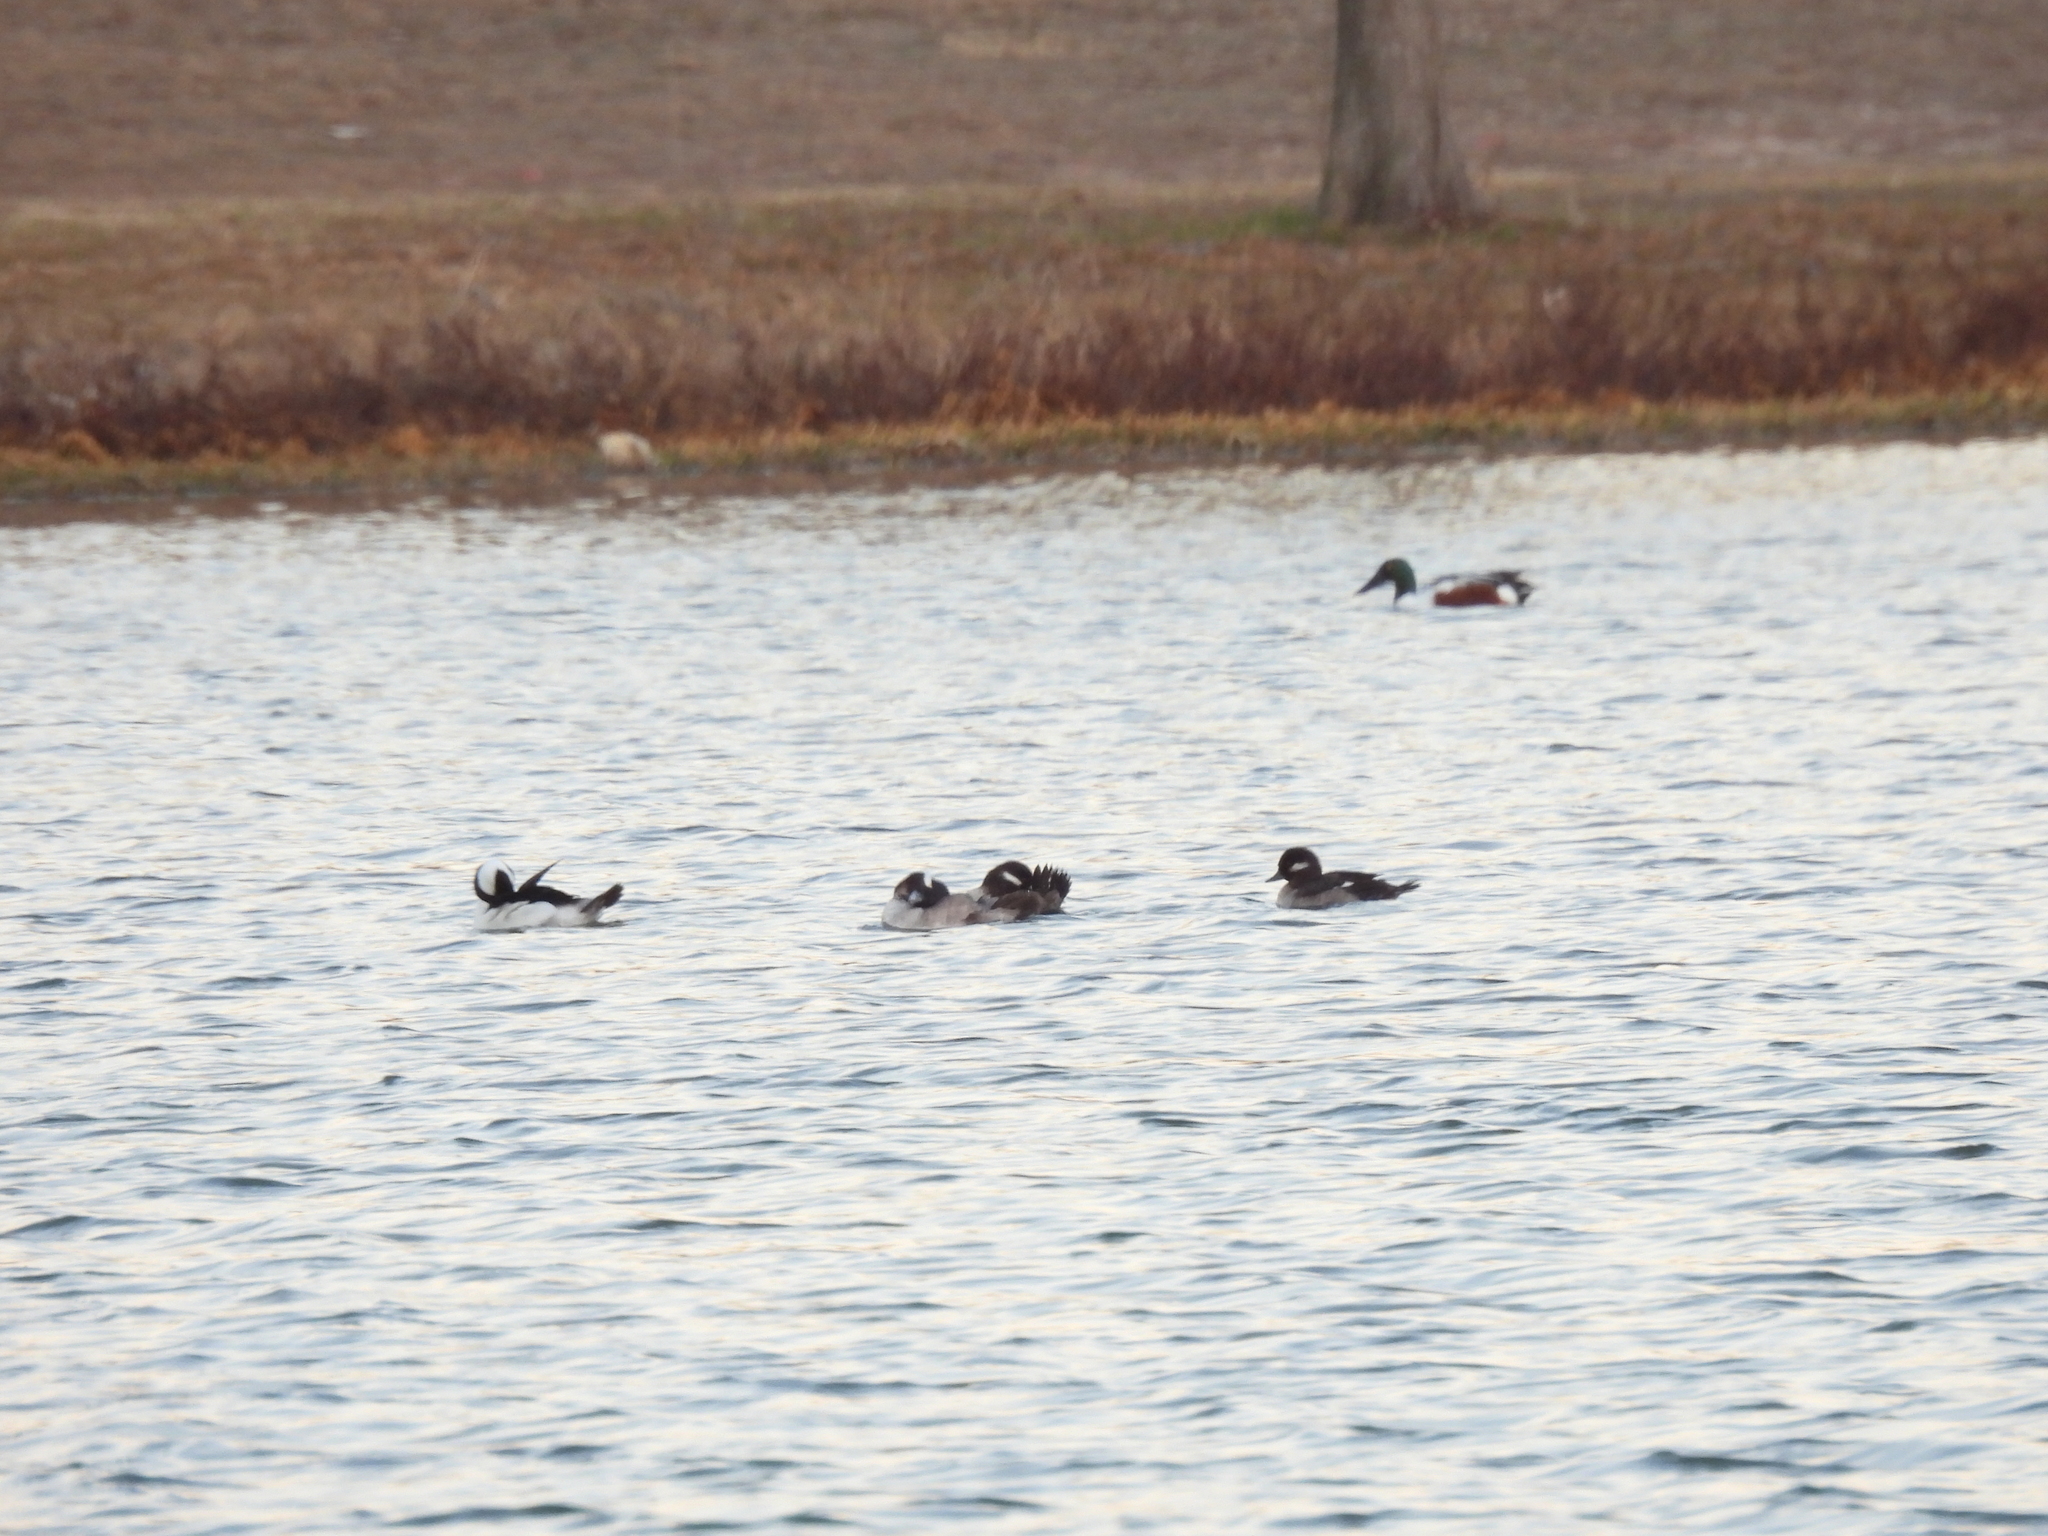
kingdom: Animalia
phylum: Chordata
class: Aves
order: Anseriformes
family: Anatidae
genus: Bucephala
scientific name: Bucephala albeola
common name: Bufflehead
